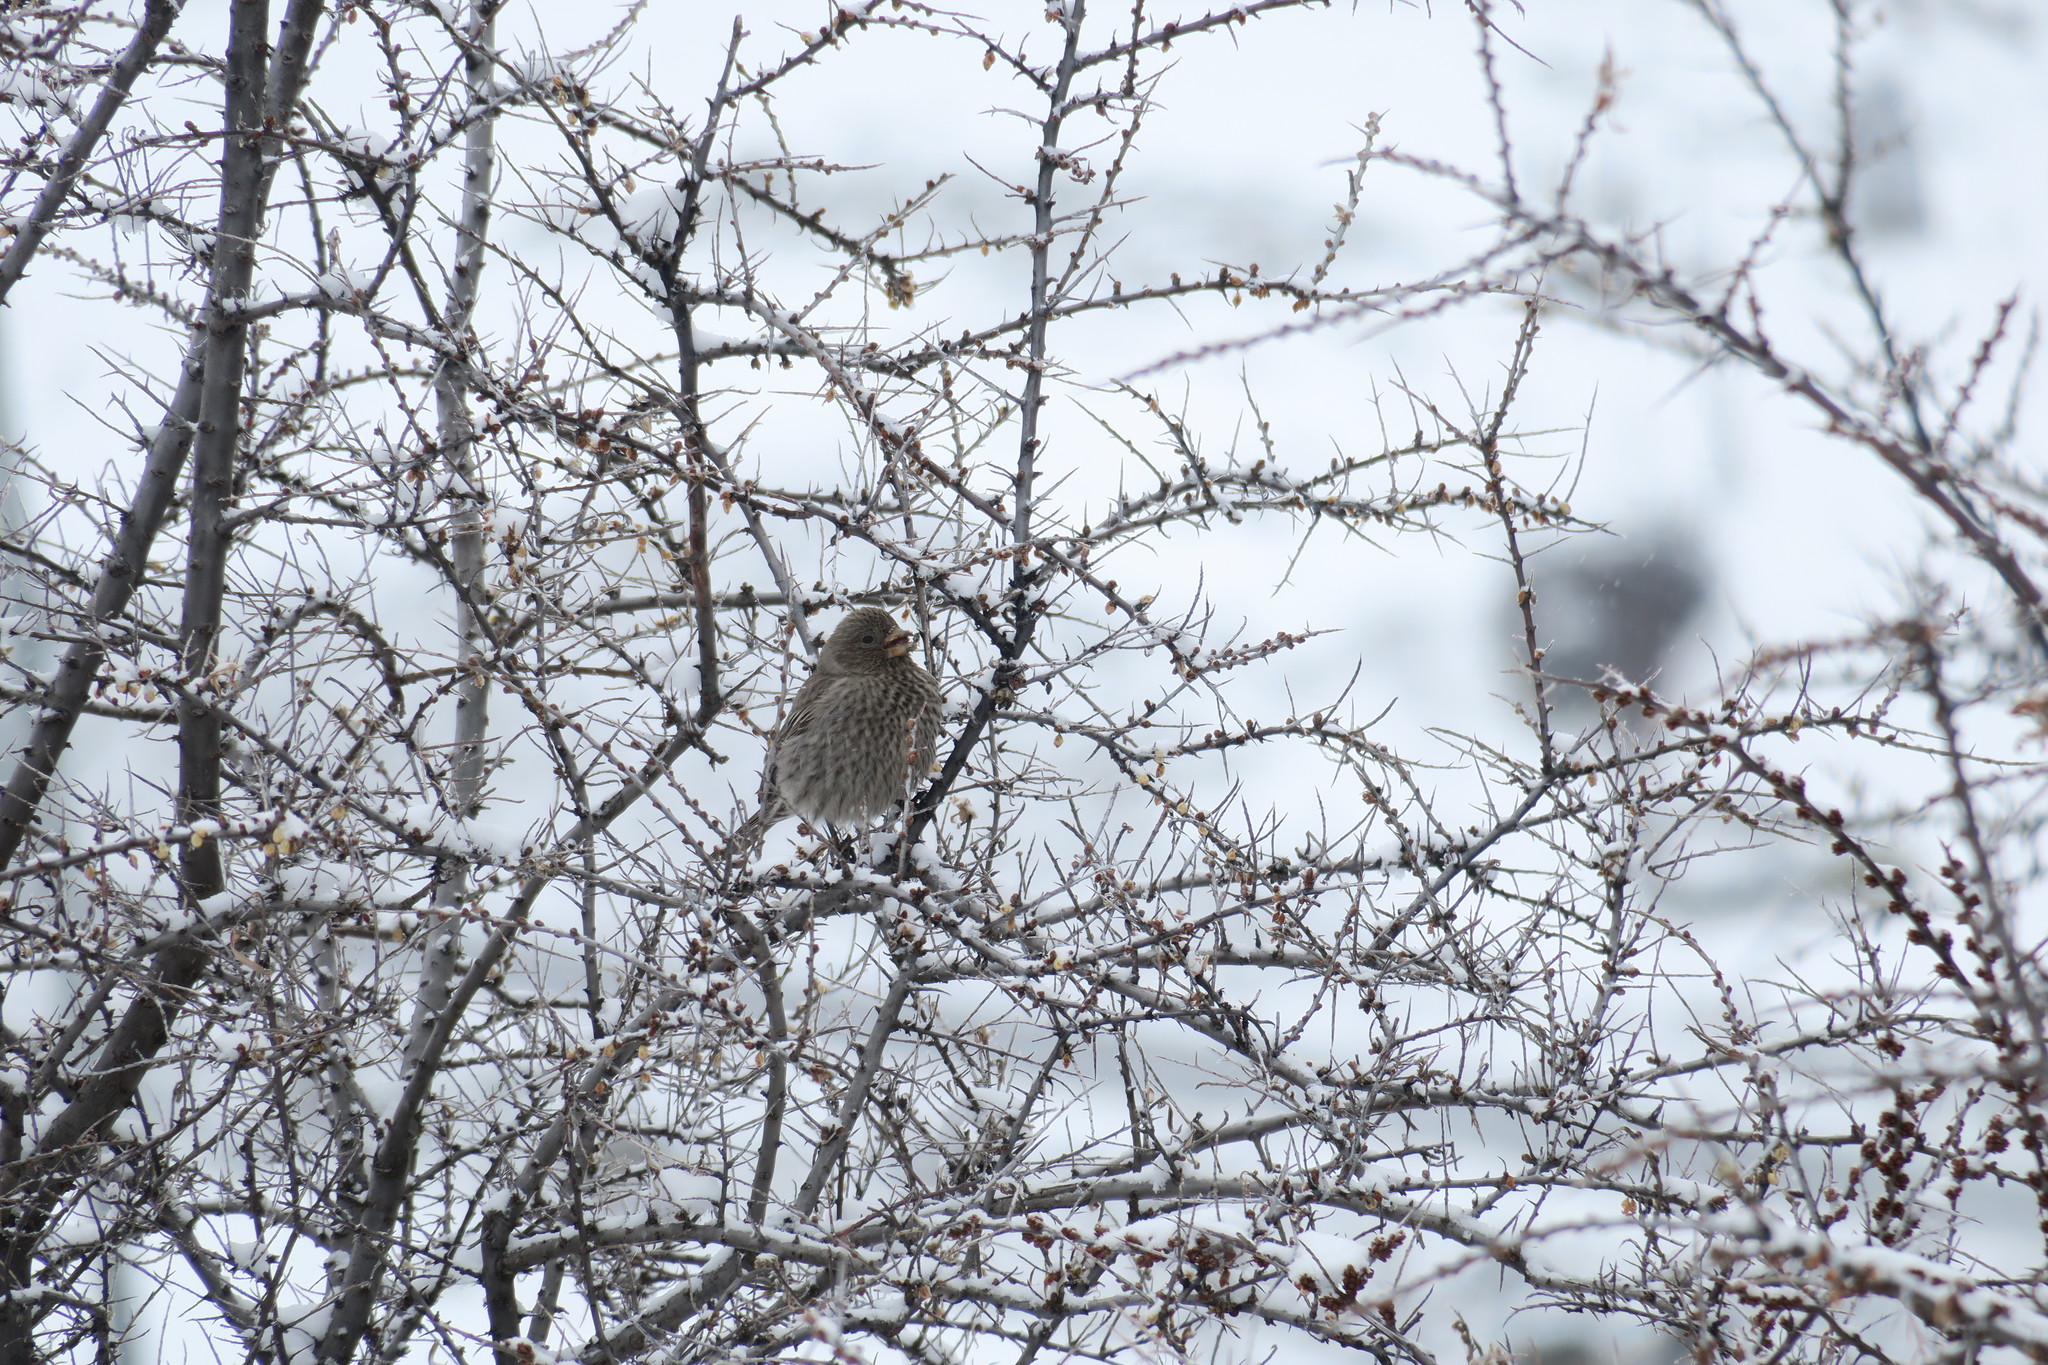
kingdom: Animalia
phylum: Chordata
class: Aves
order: Passeriformes
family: Fringillidae
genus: Carpodacus
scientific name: Carpodacus rubicilla
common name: Great rosefinch
